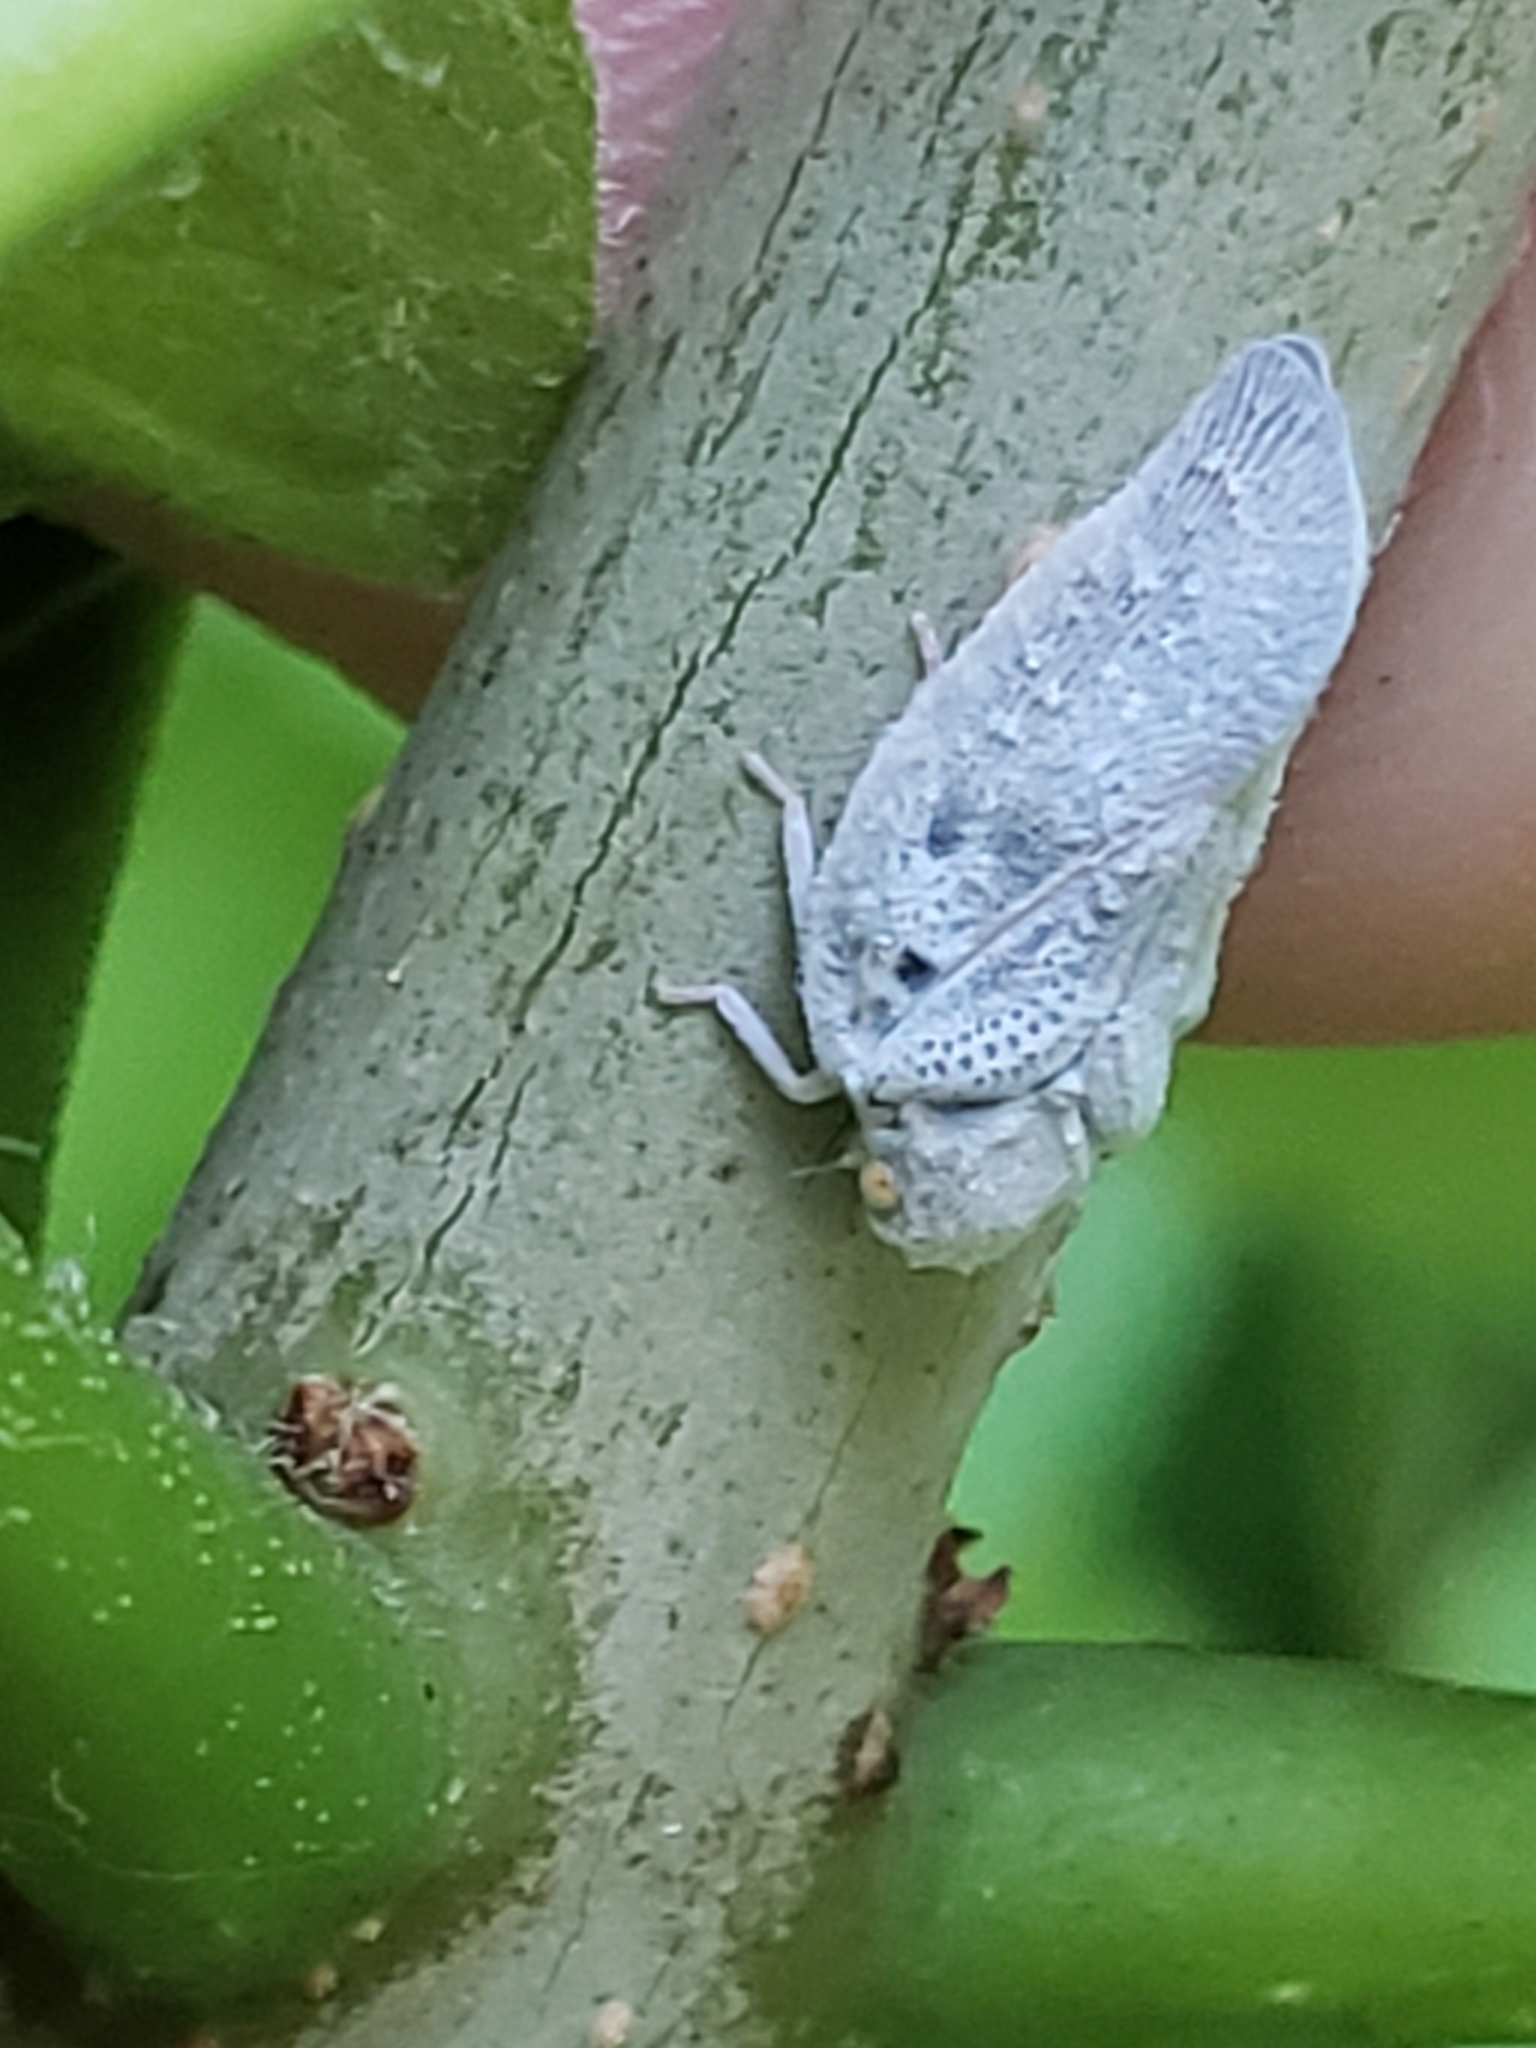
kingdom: Animalia
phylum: Arthropoda
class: Insecta
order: Hemiptera
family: Flatidae
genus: Metcalfa
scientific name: Metcalfa pruinosa
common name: Citrus flatid planthopper
